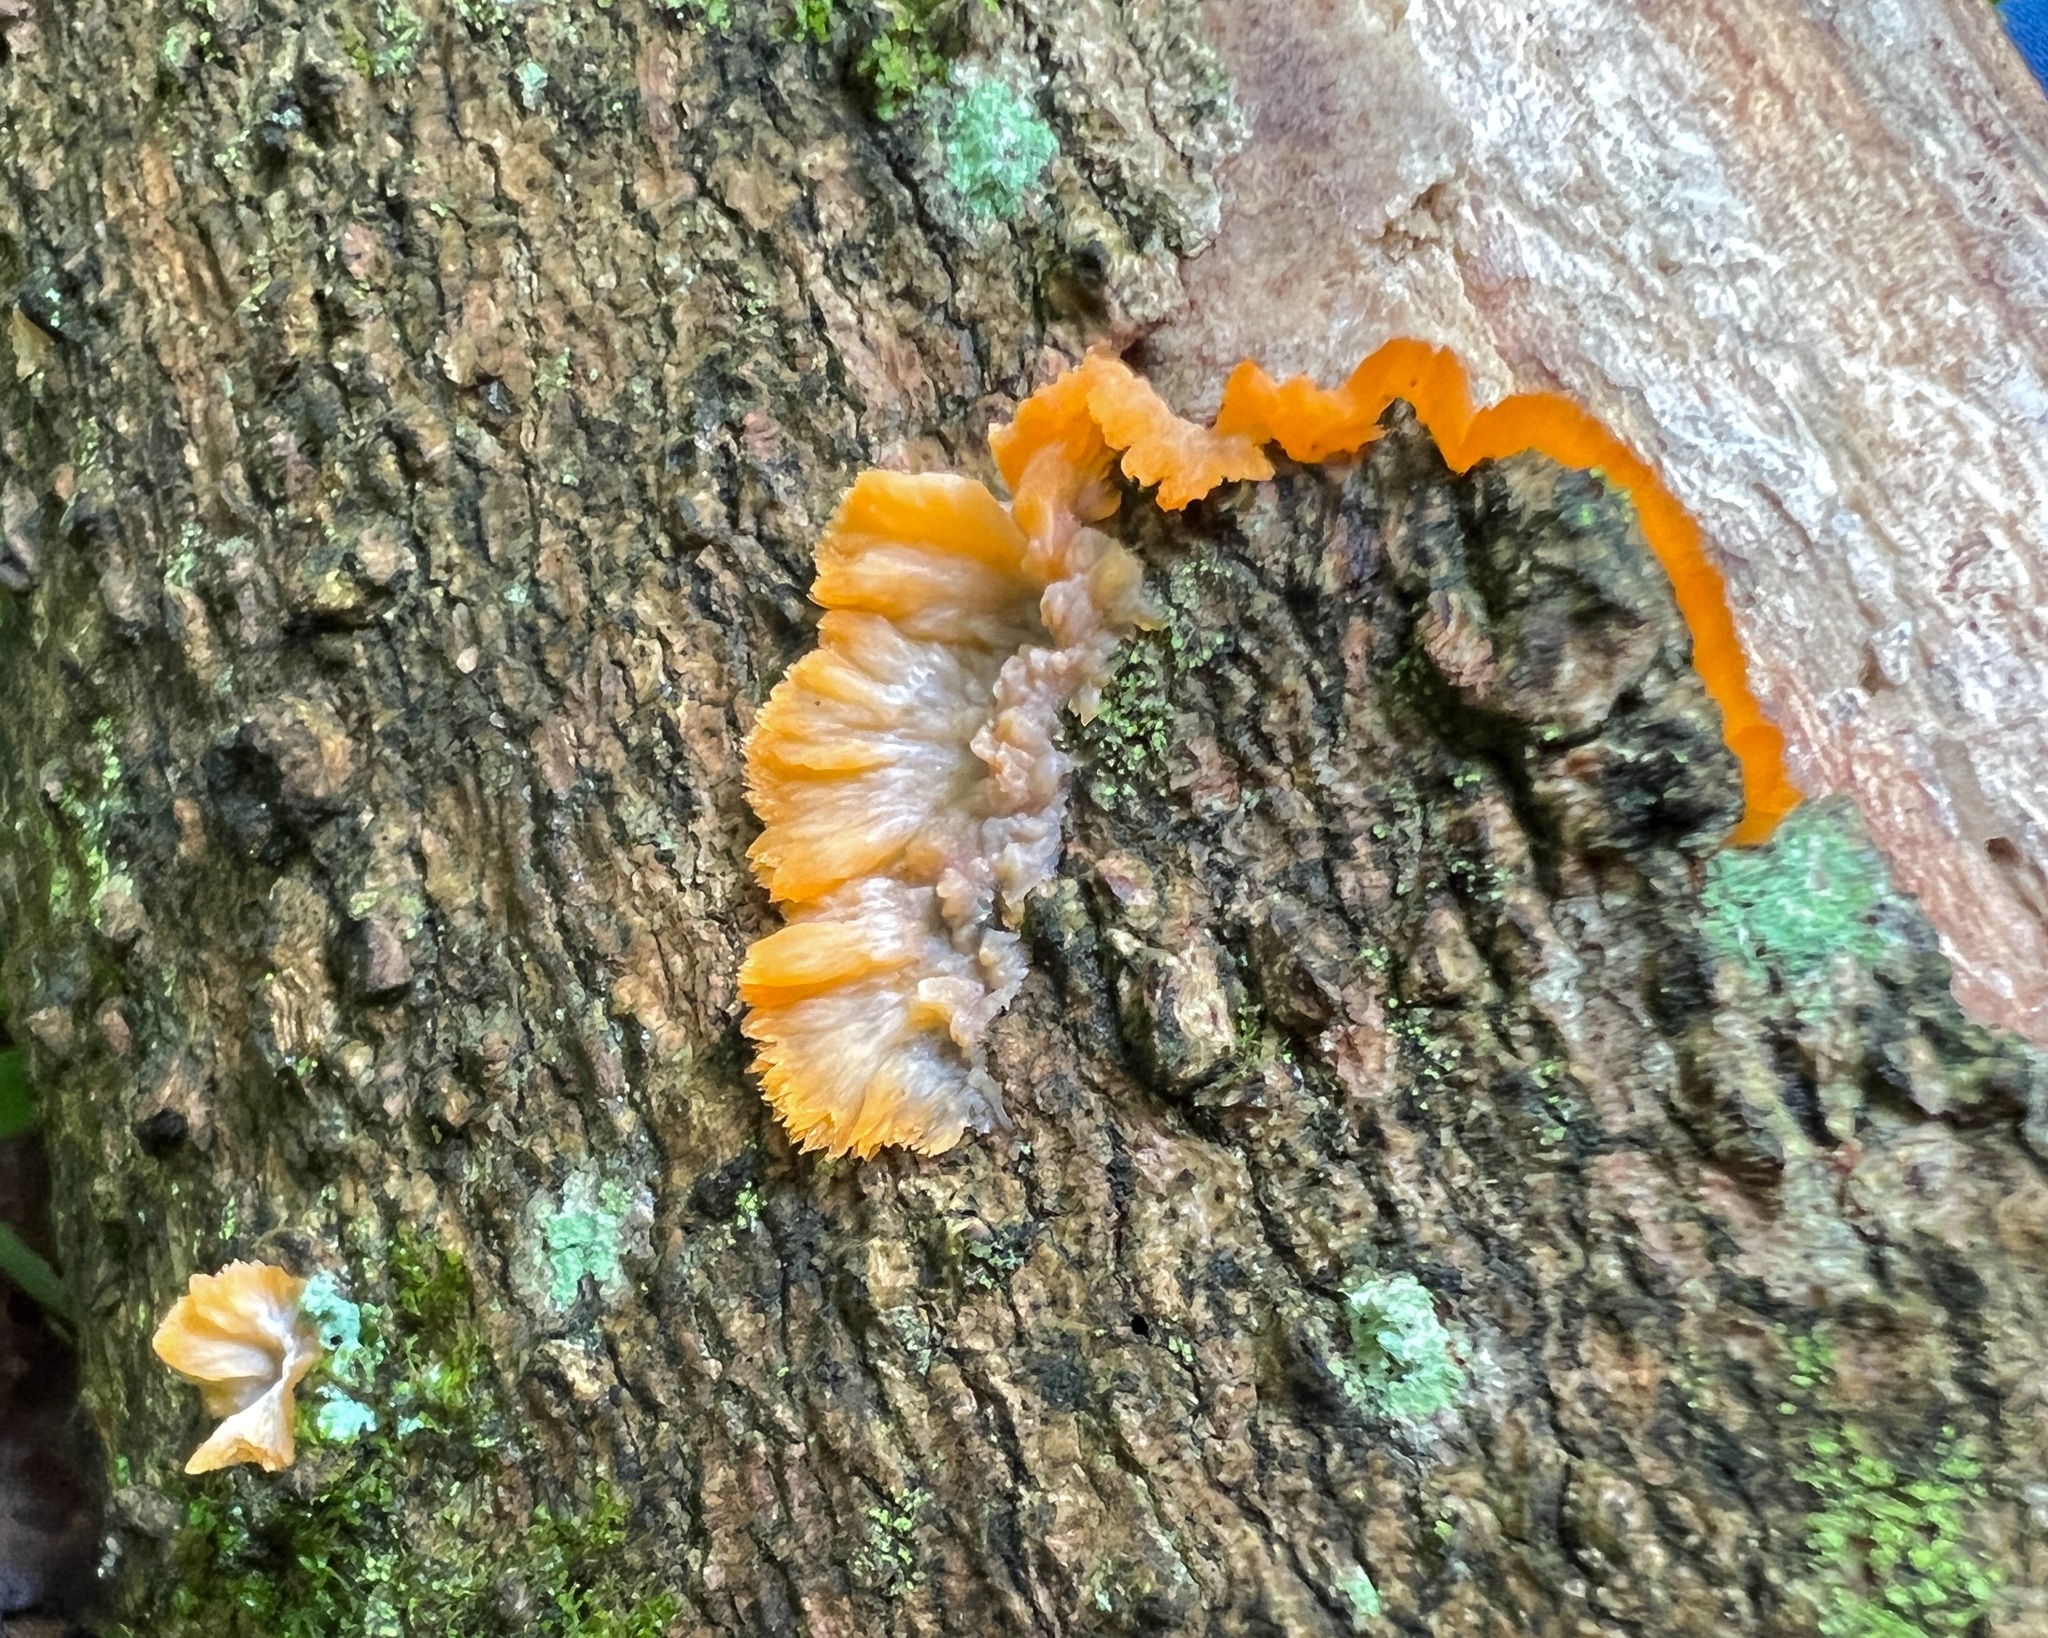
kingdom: Fungi
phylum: Basidiomycota
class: Agaricomycetes
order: Polyporales
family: Meruliaceae
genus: Phlebia
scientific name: Phlebia radiata
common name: Wrinkled crust
